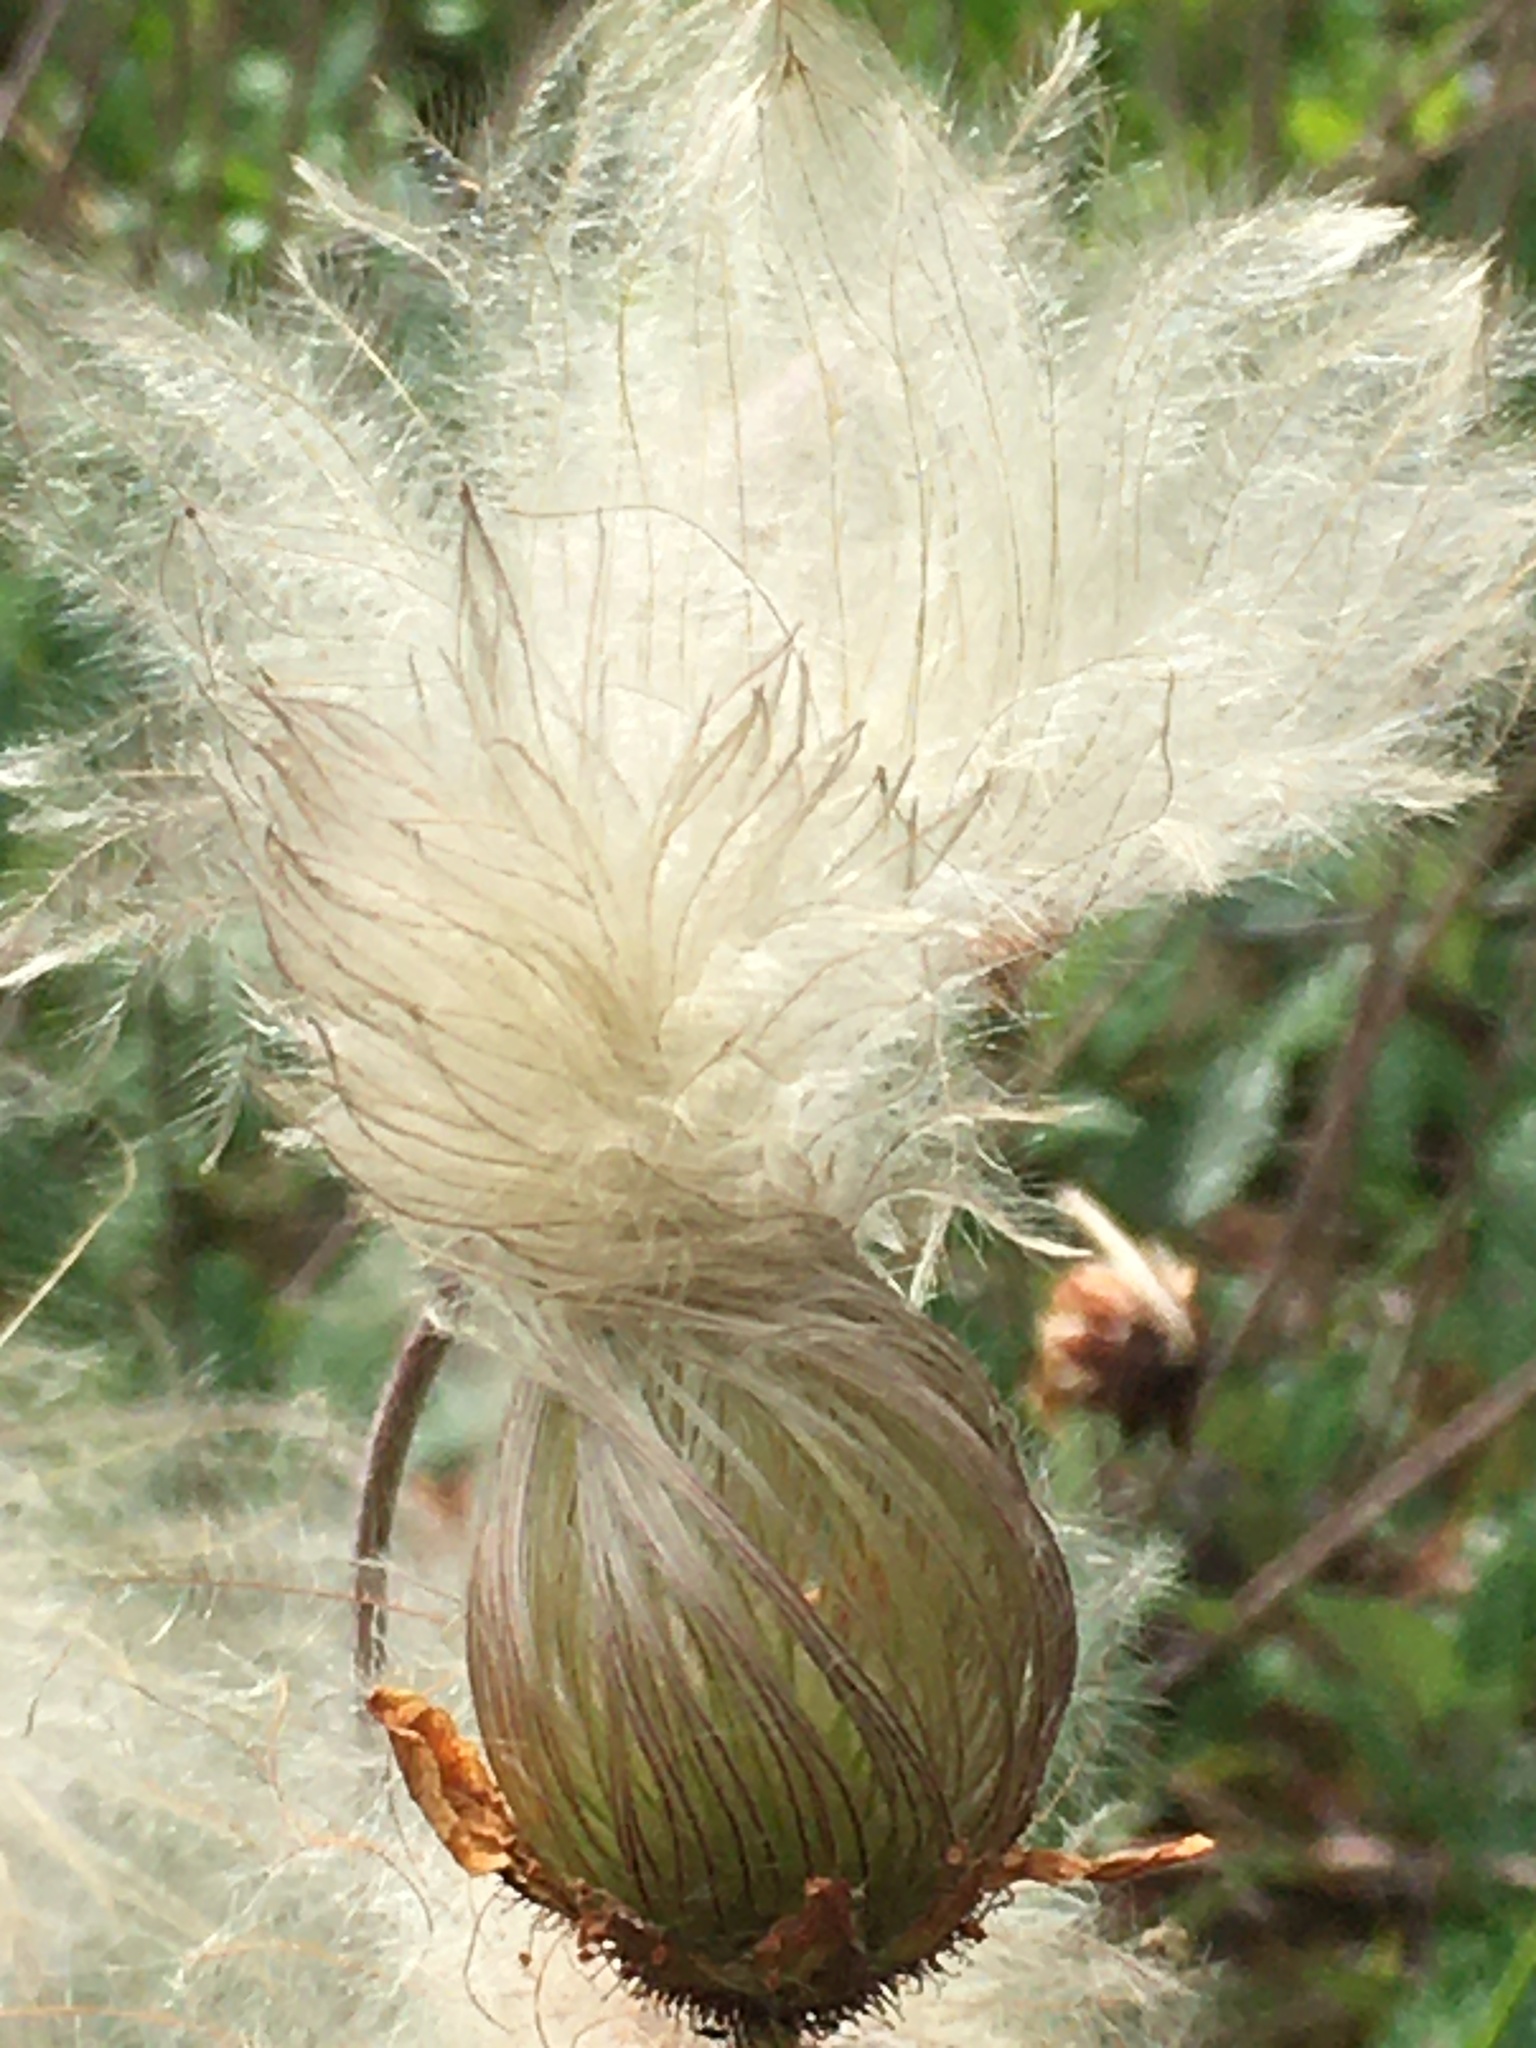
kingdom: Plantae
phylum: Tracheophyta
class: Magnoliopsida
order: Rosales
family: Rosaceae
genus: Dryas
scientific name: Dryas drummondii
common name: Drummond's dryad
